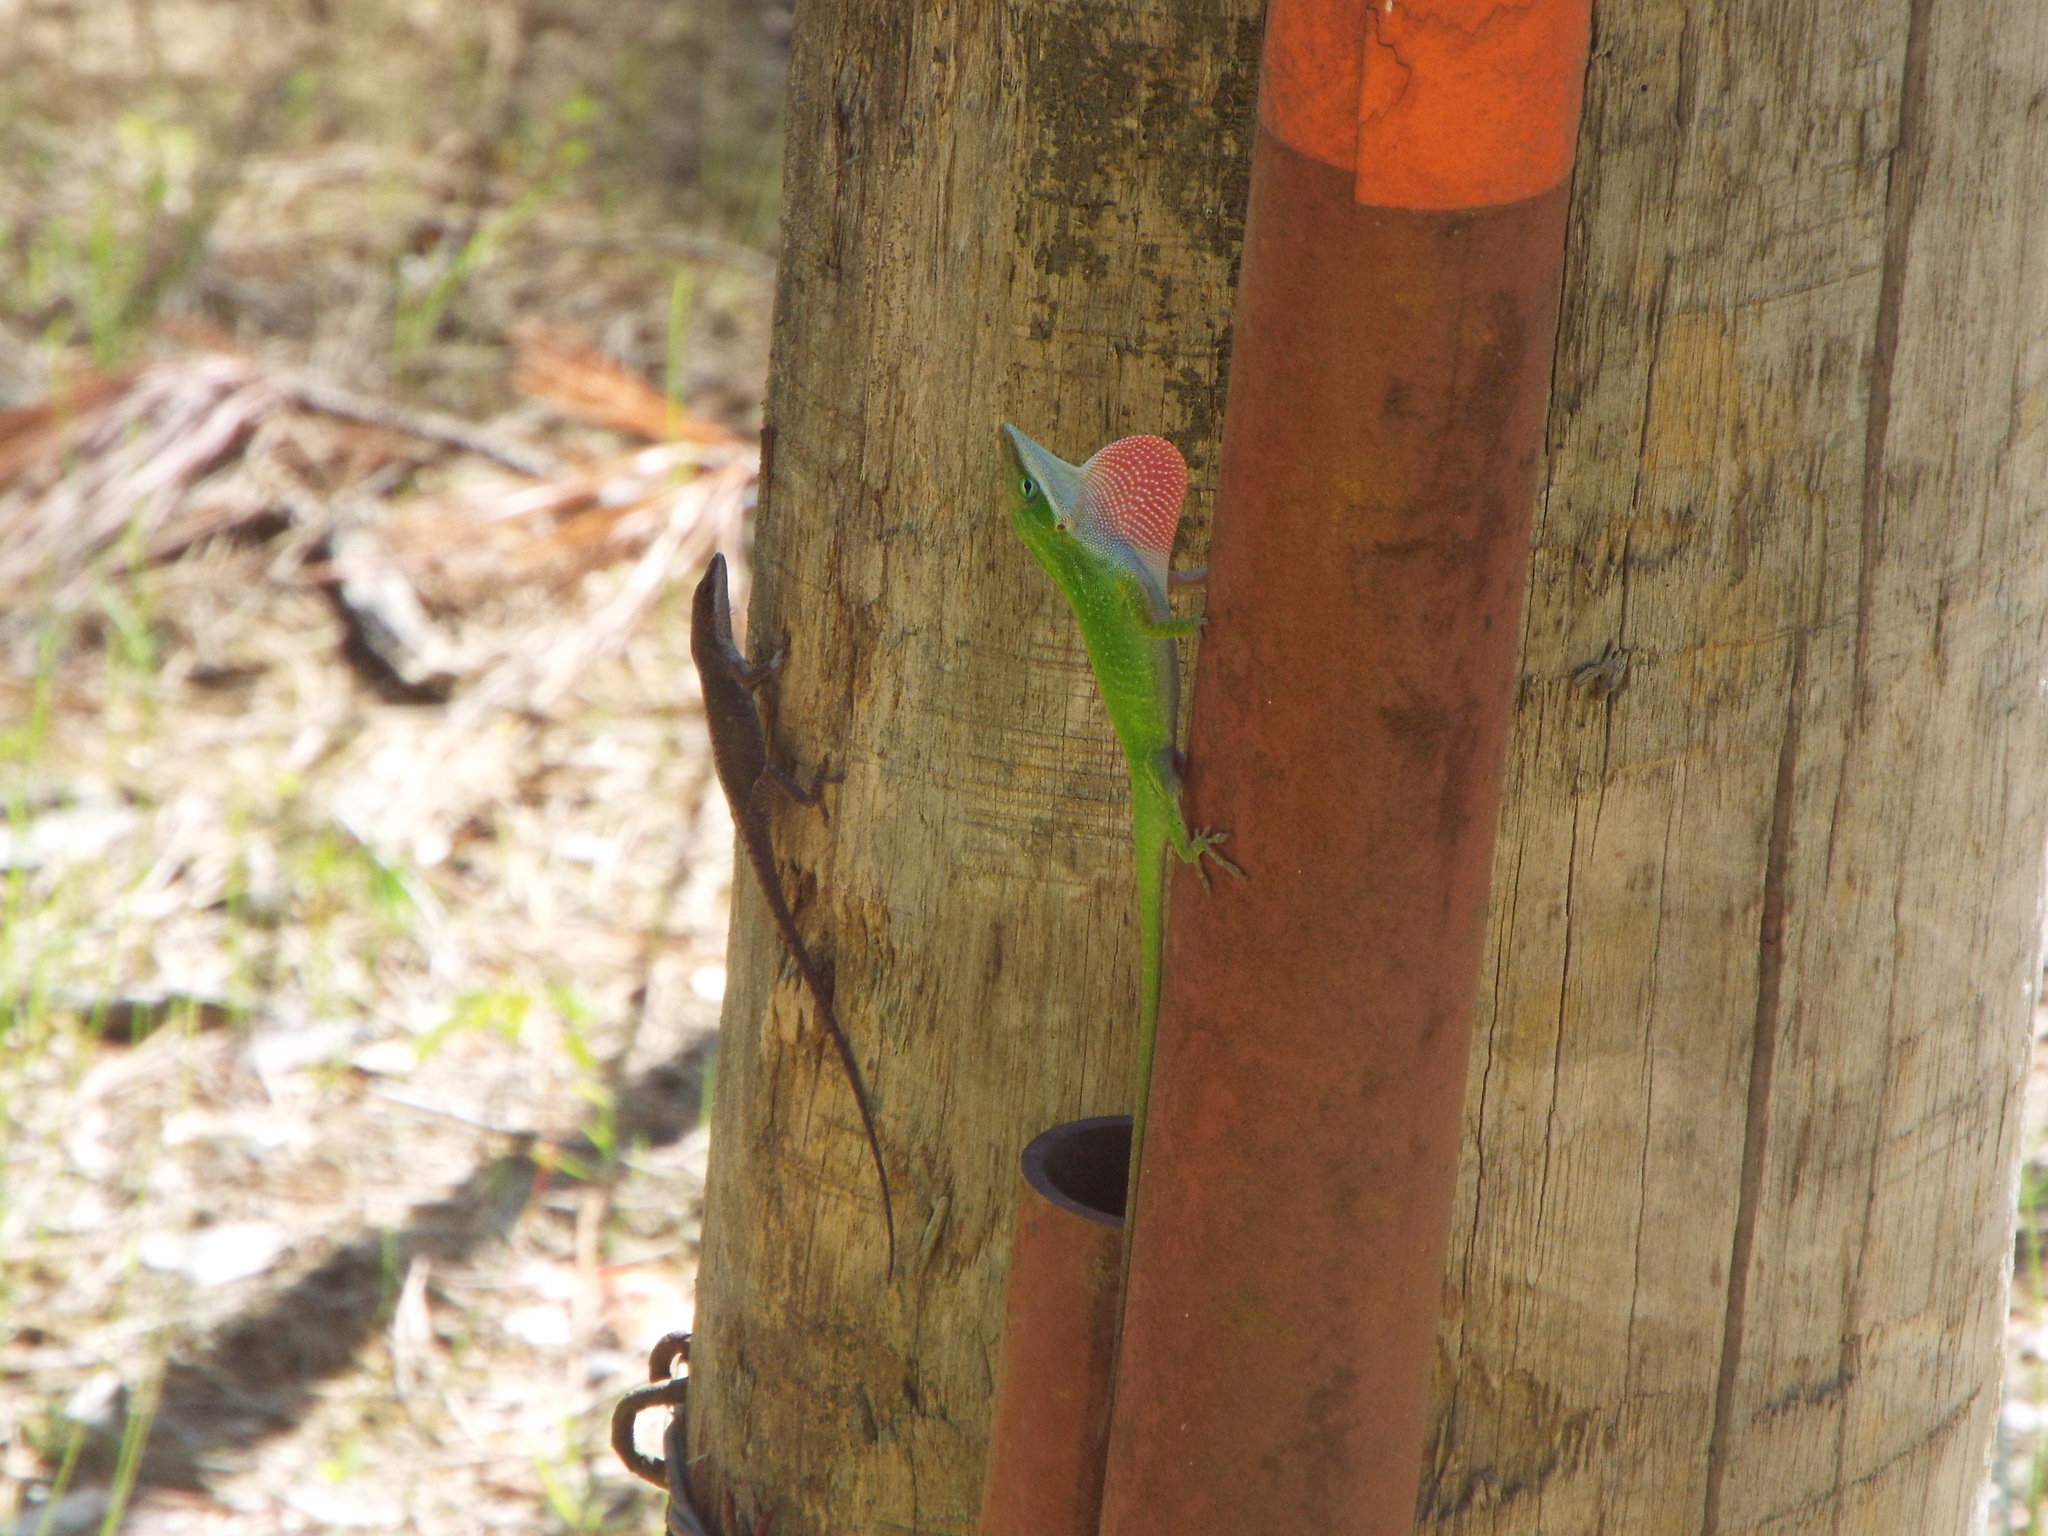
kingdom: Animalia
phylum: Chordata
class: Squamata
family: Dactyloidae
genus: Anolis
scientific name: Anolis carolinensis
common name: Green anole
